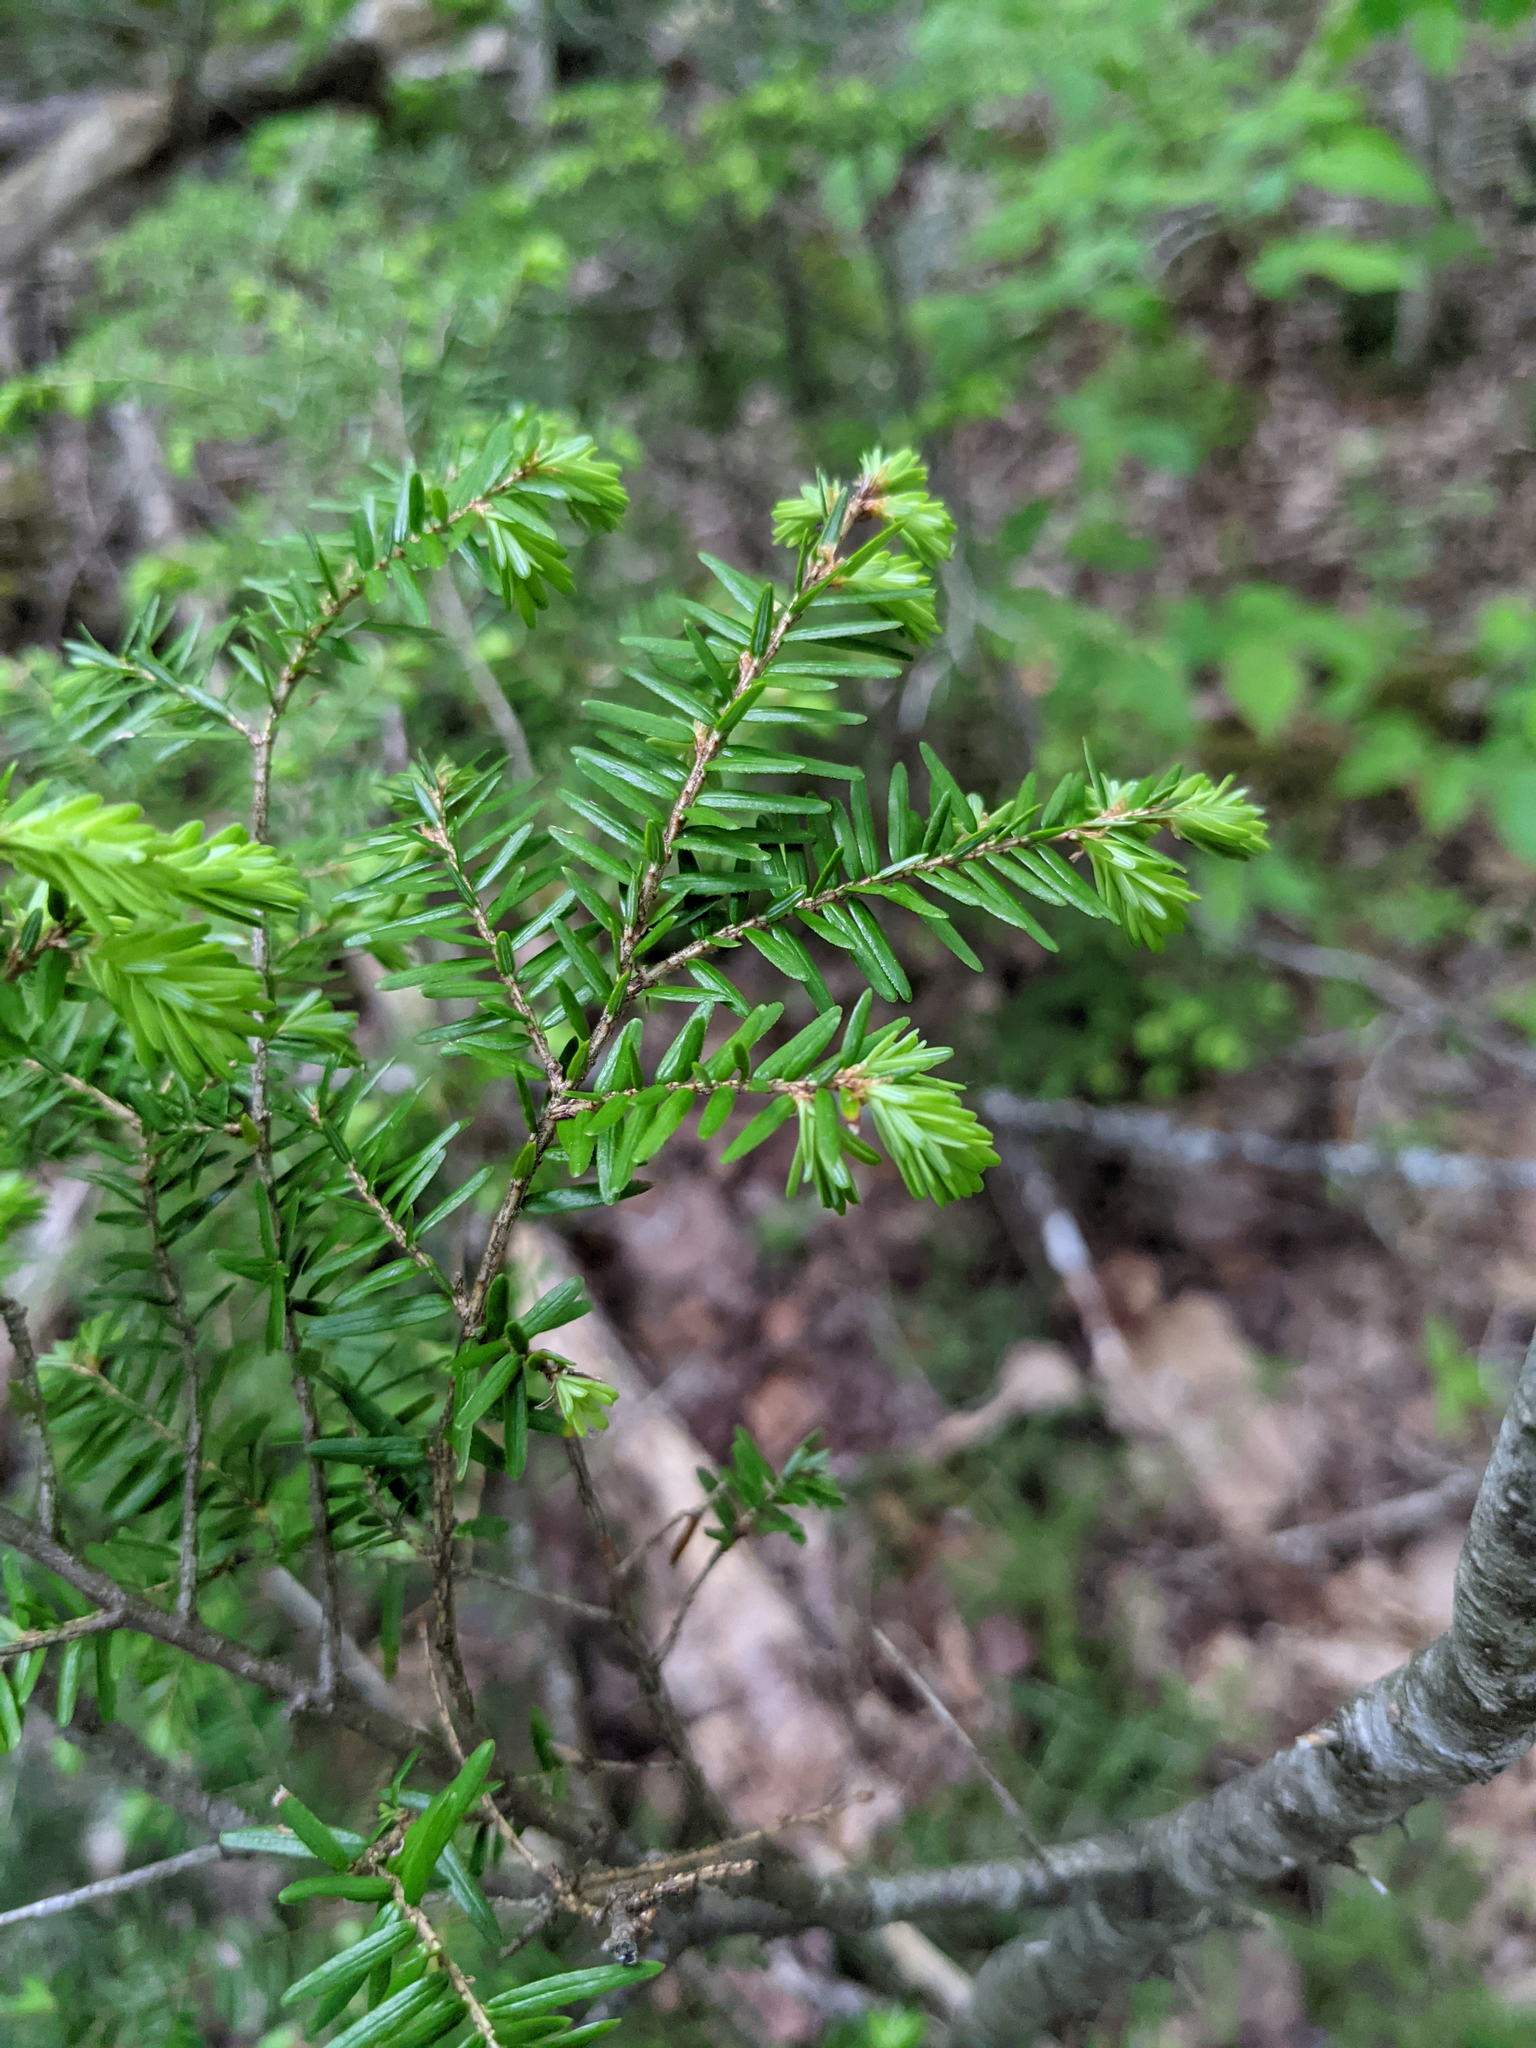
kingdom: Plantae
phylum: Tracheophyta
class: Pinopsida
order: Pinales
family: Pinaceae
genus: Tsuga
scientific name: Tsuga canadensis
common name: Eastern hemlock
